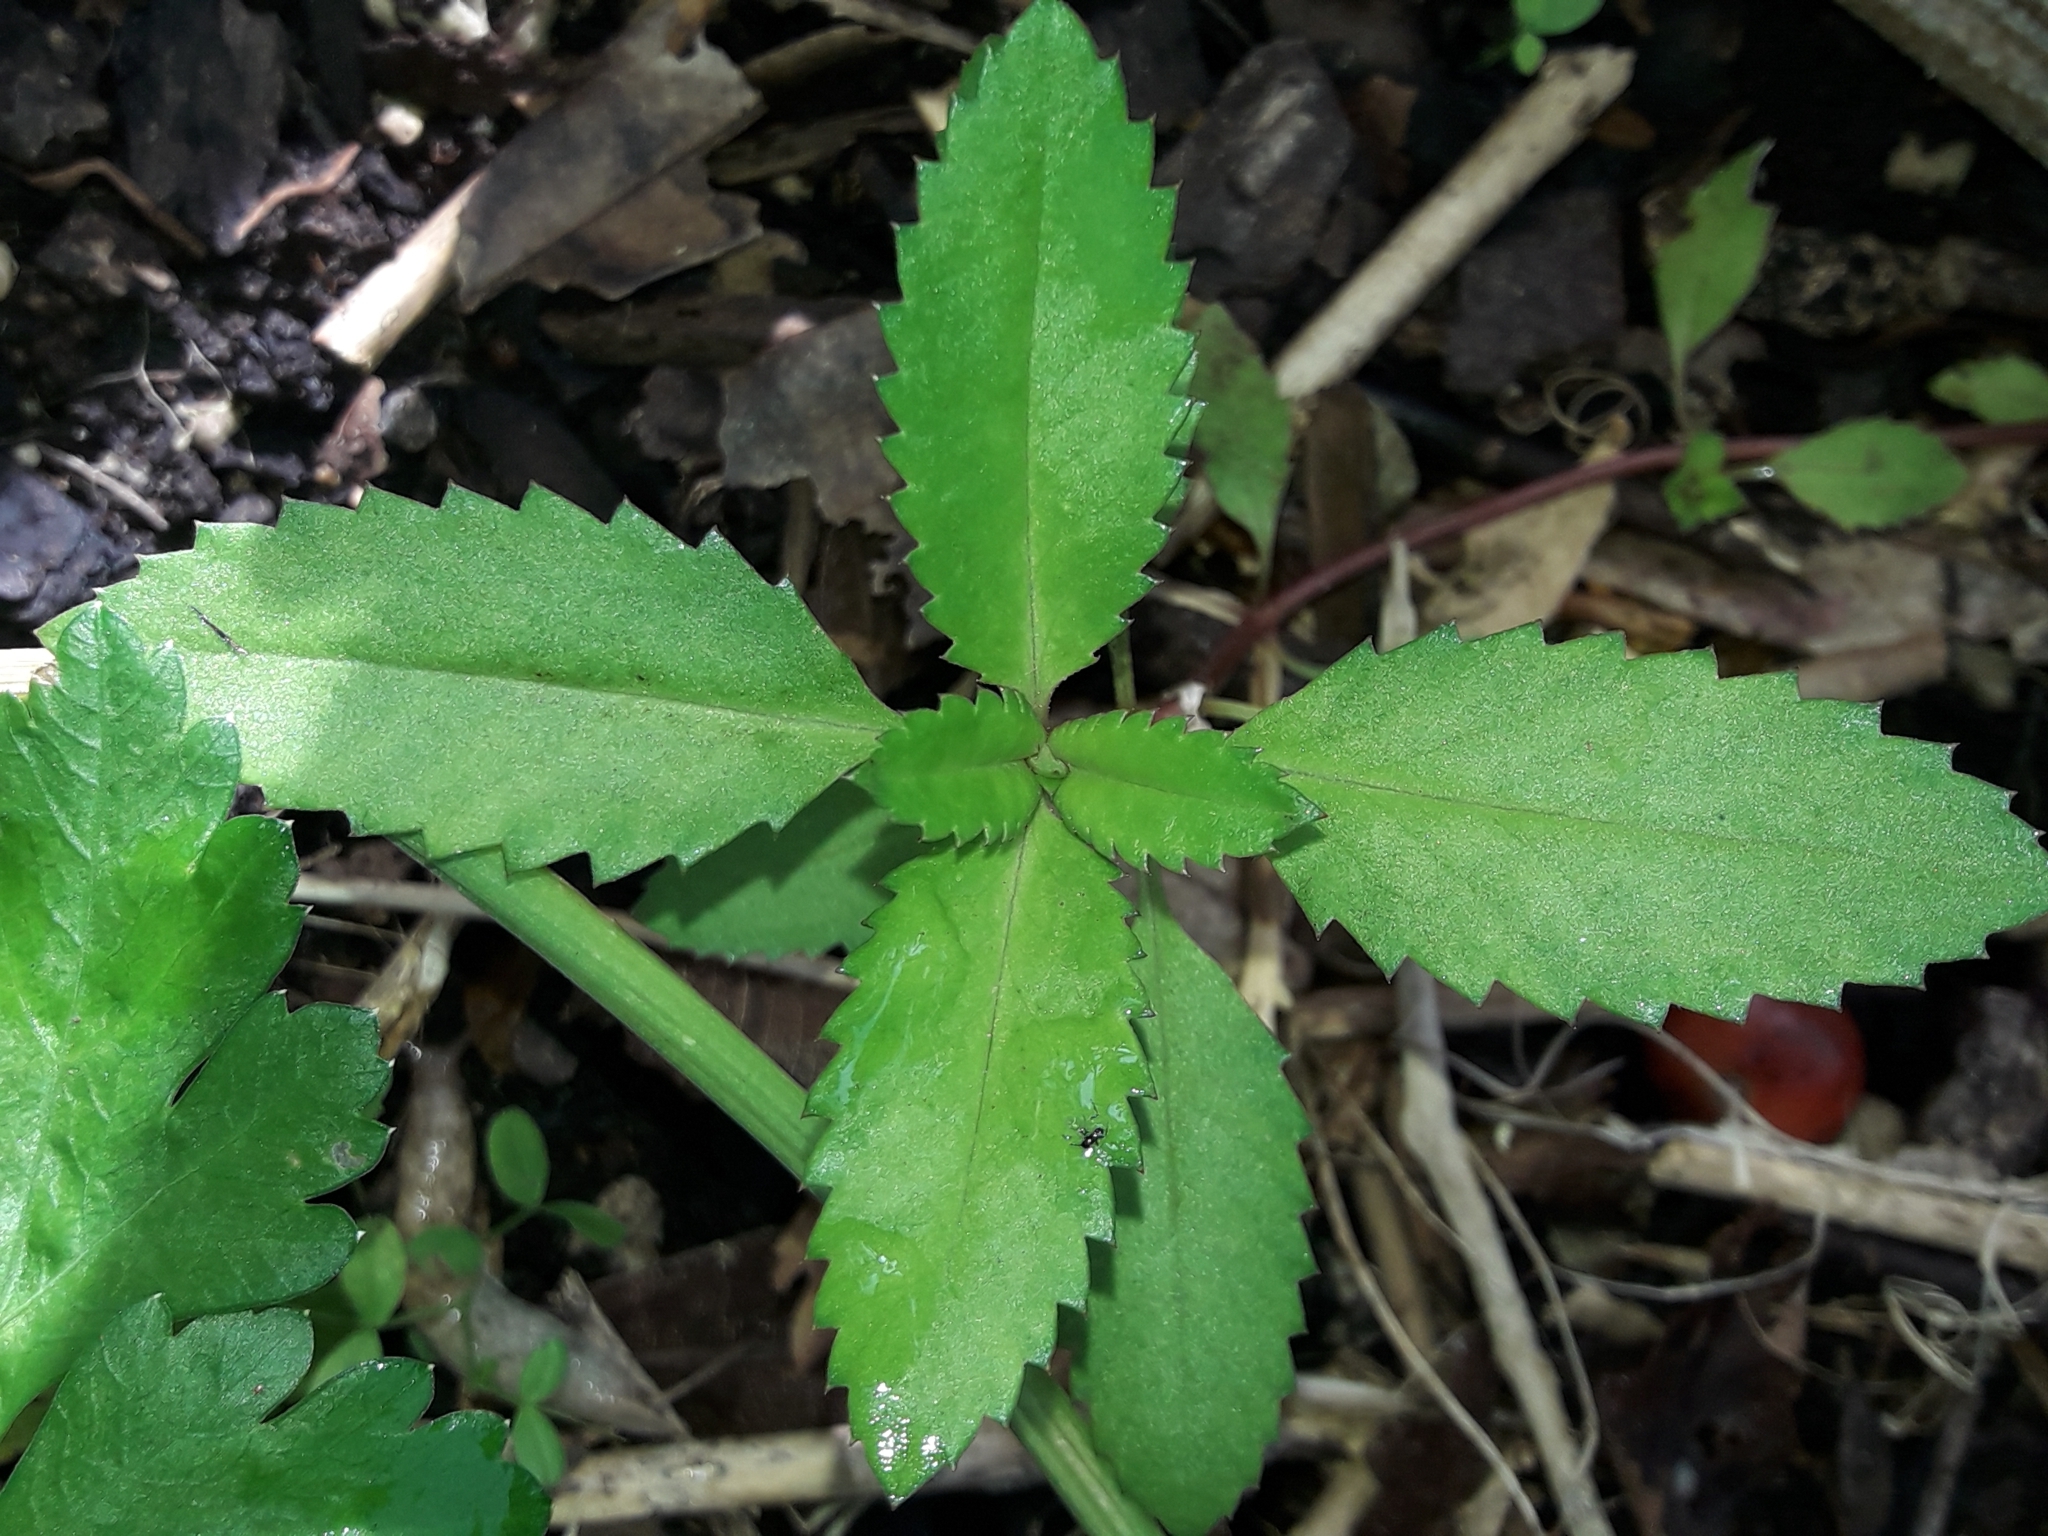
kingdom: Plantae
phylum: Tracheophyta
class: Magnoliopsida
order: Saxifragales
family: Haloragaceae
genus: Haloragis
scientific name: Haloragis erecta
